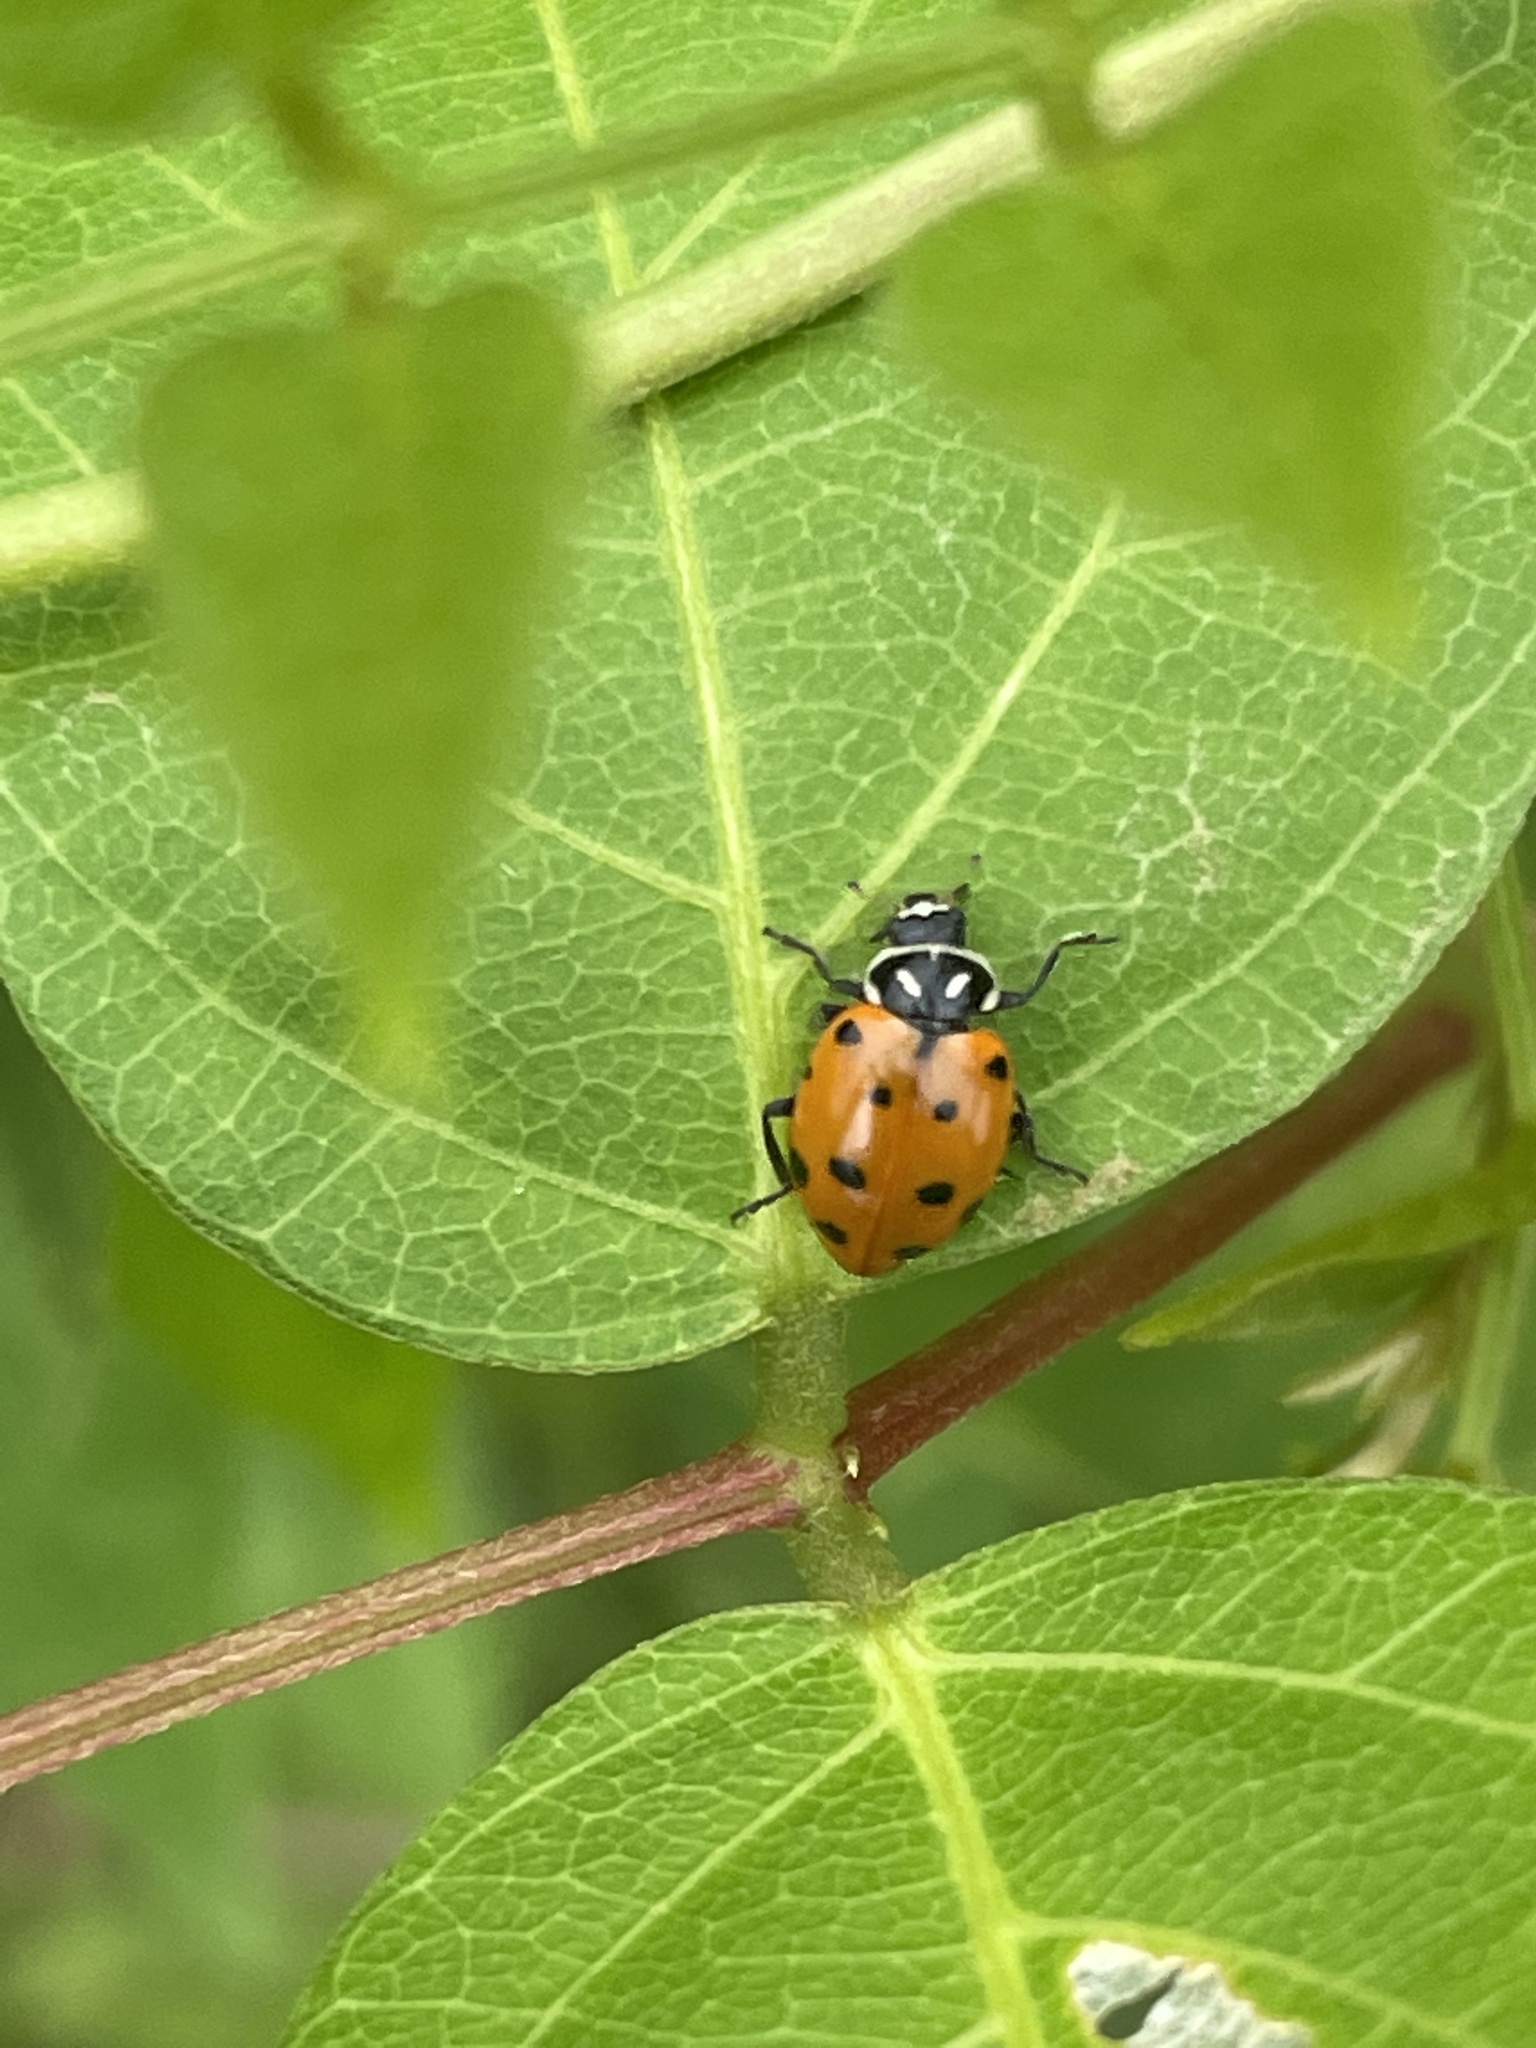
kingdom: Animalia
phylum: Arthropoda
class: Insecta
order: Coleoptera
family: Coccinellidae
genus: Hippodamia
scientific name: Hippodamia convergens
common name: Convergent lady beetle
